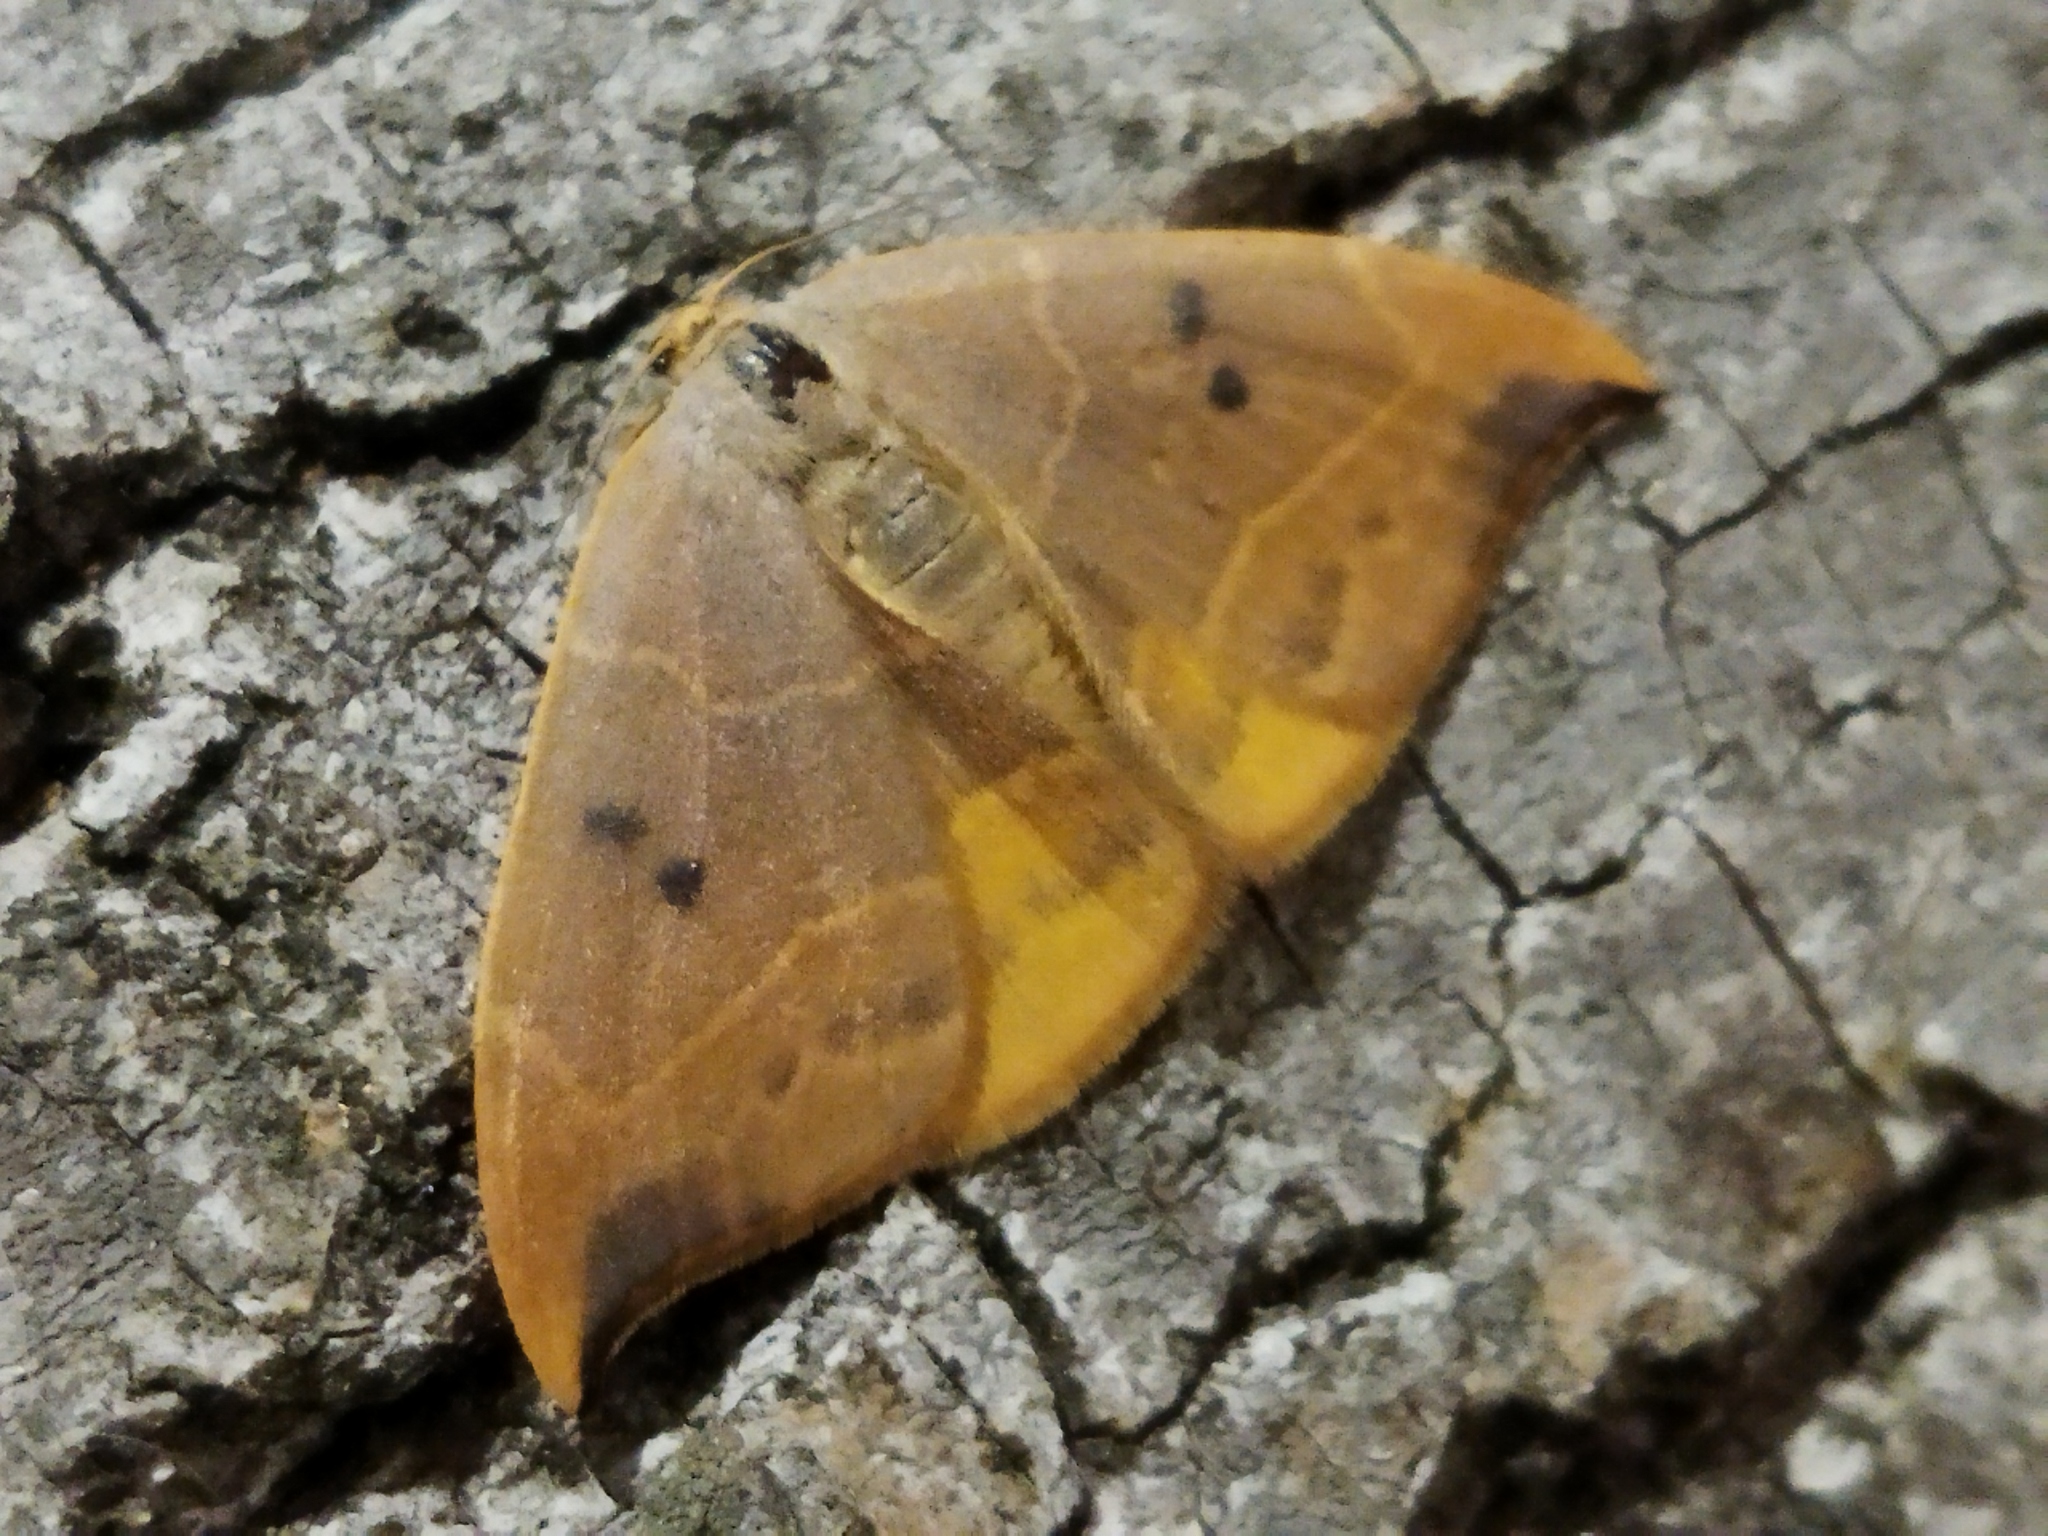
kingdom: Animalia
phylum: Arthropoda
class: Insecta
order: Lepidoptera
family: Drepanidae
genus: Watsonalla
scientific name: Watsonalla binaria
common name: Oak hook-tip
